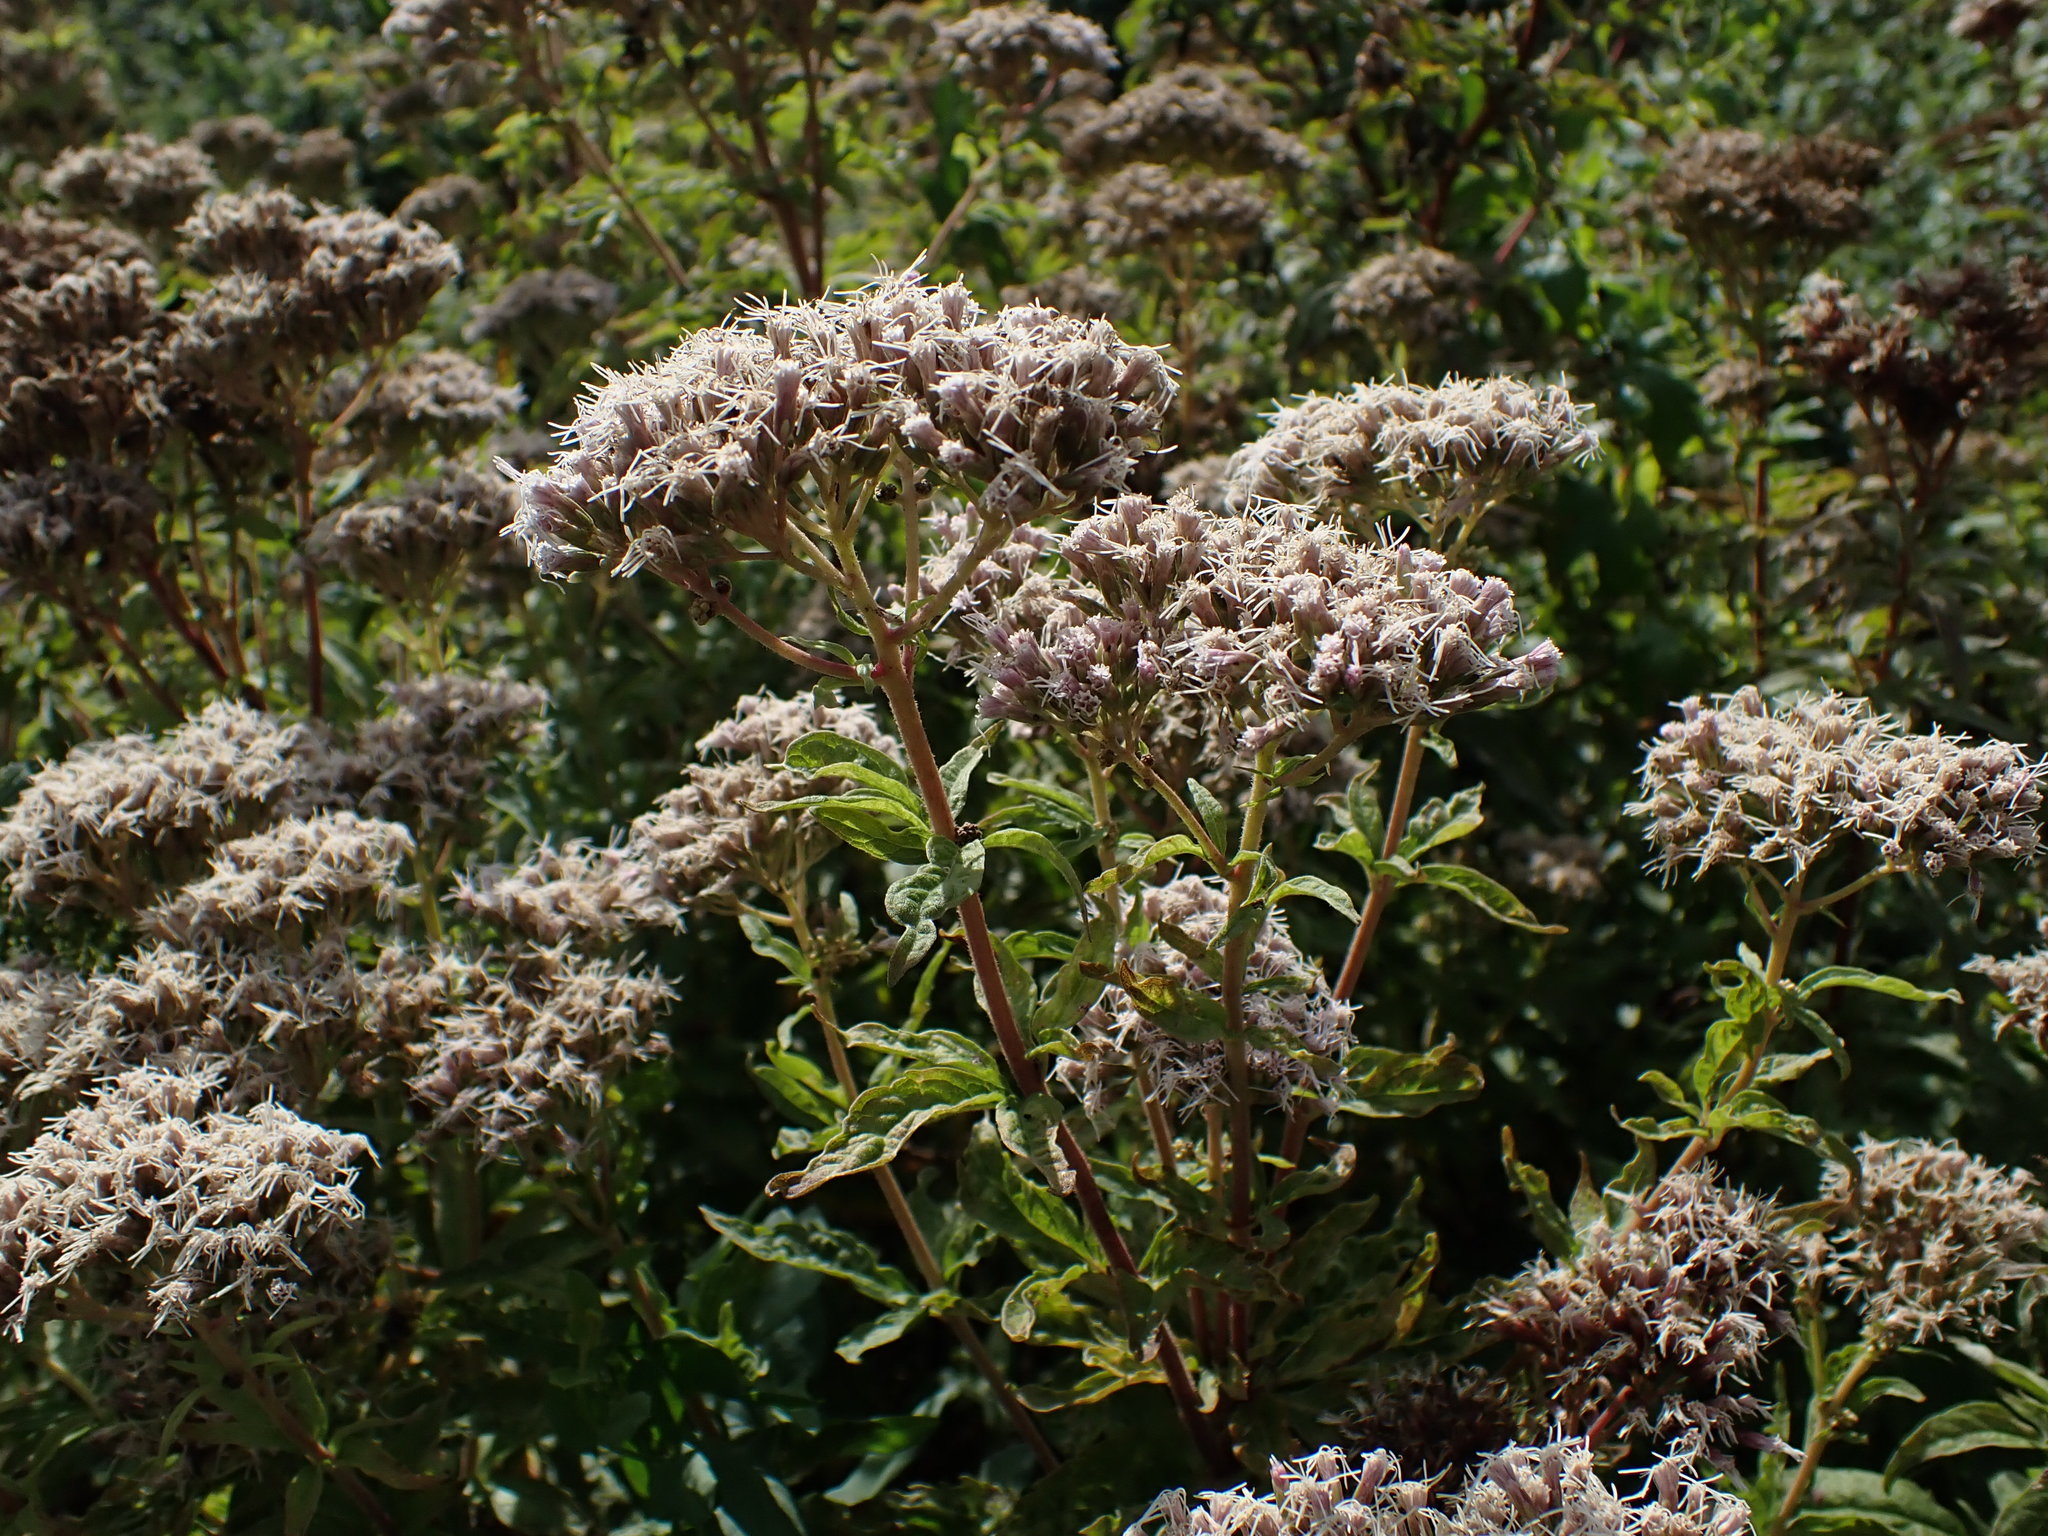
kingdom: Plantae
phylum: Tracheophyta
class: Magnoliopsida
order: Asterales
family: Asteraceae
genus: Eupatorium
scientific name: Eupatorium cannabinum
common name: Hemp-agrimony
